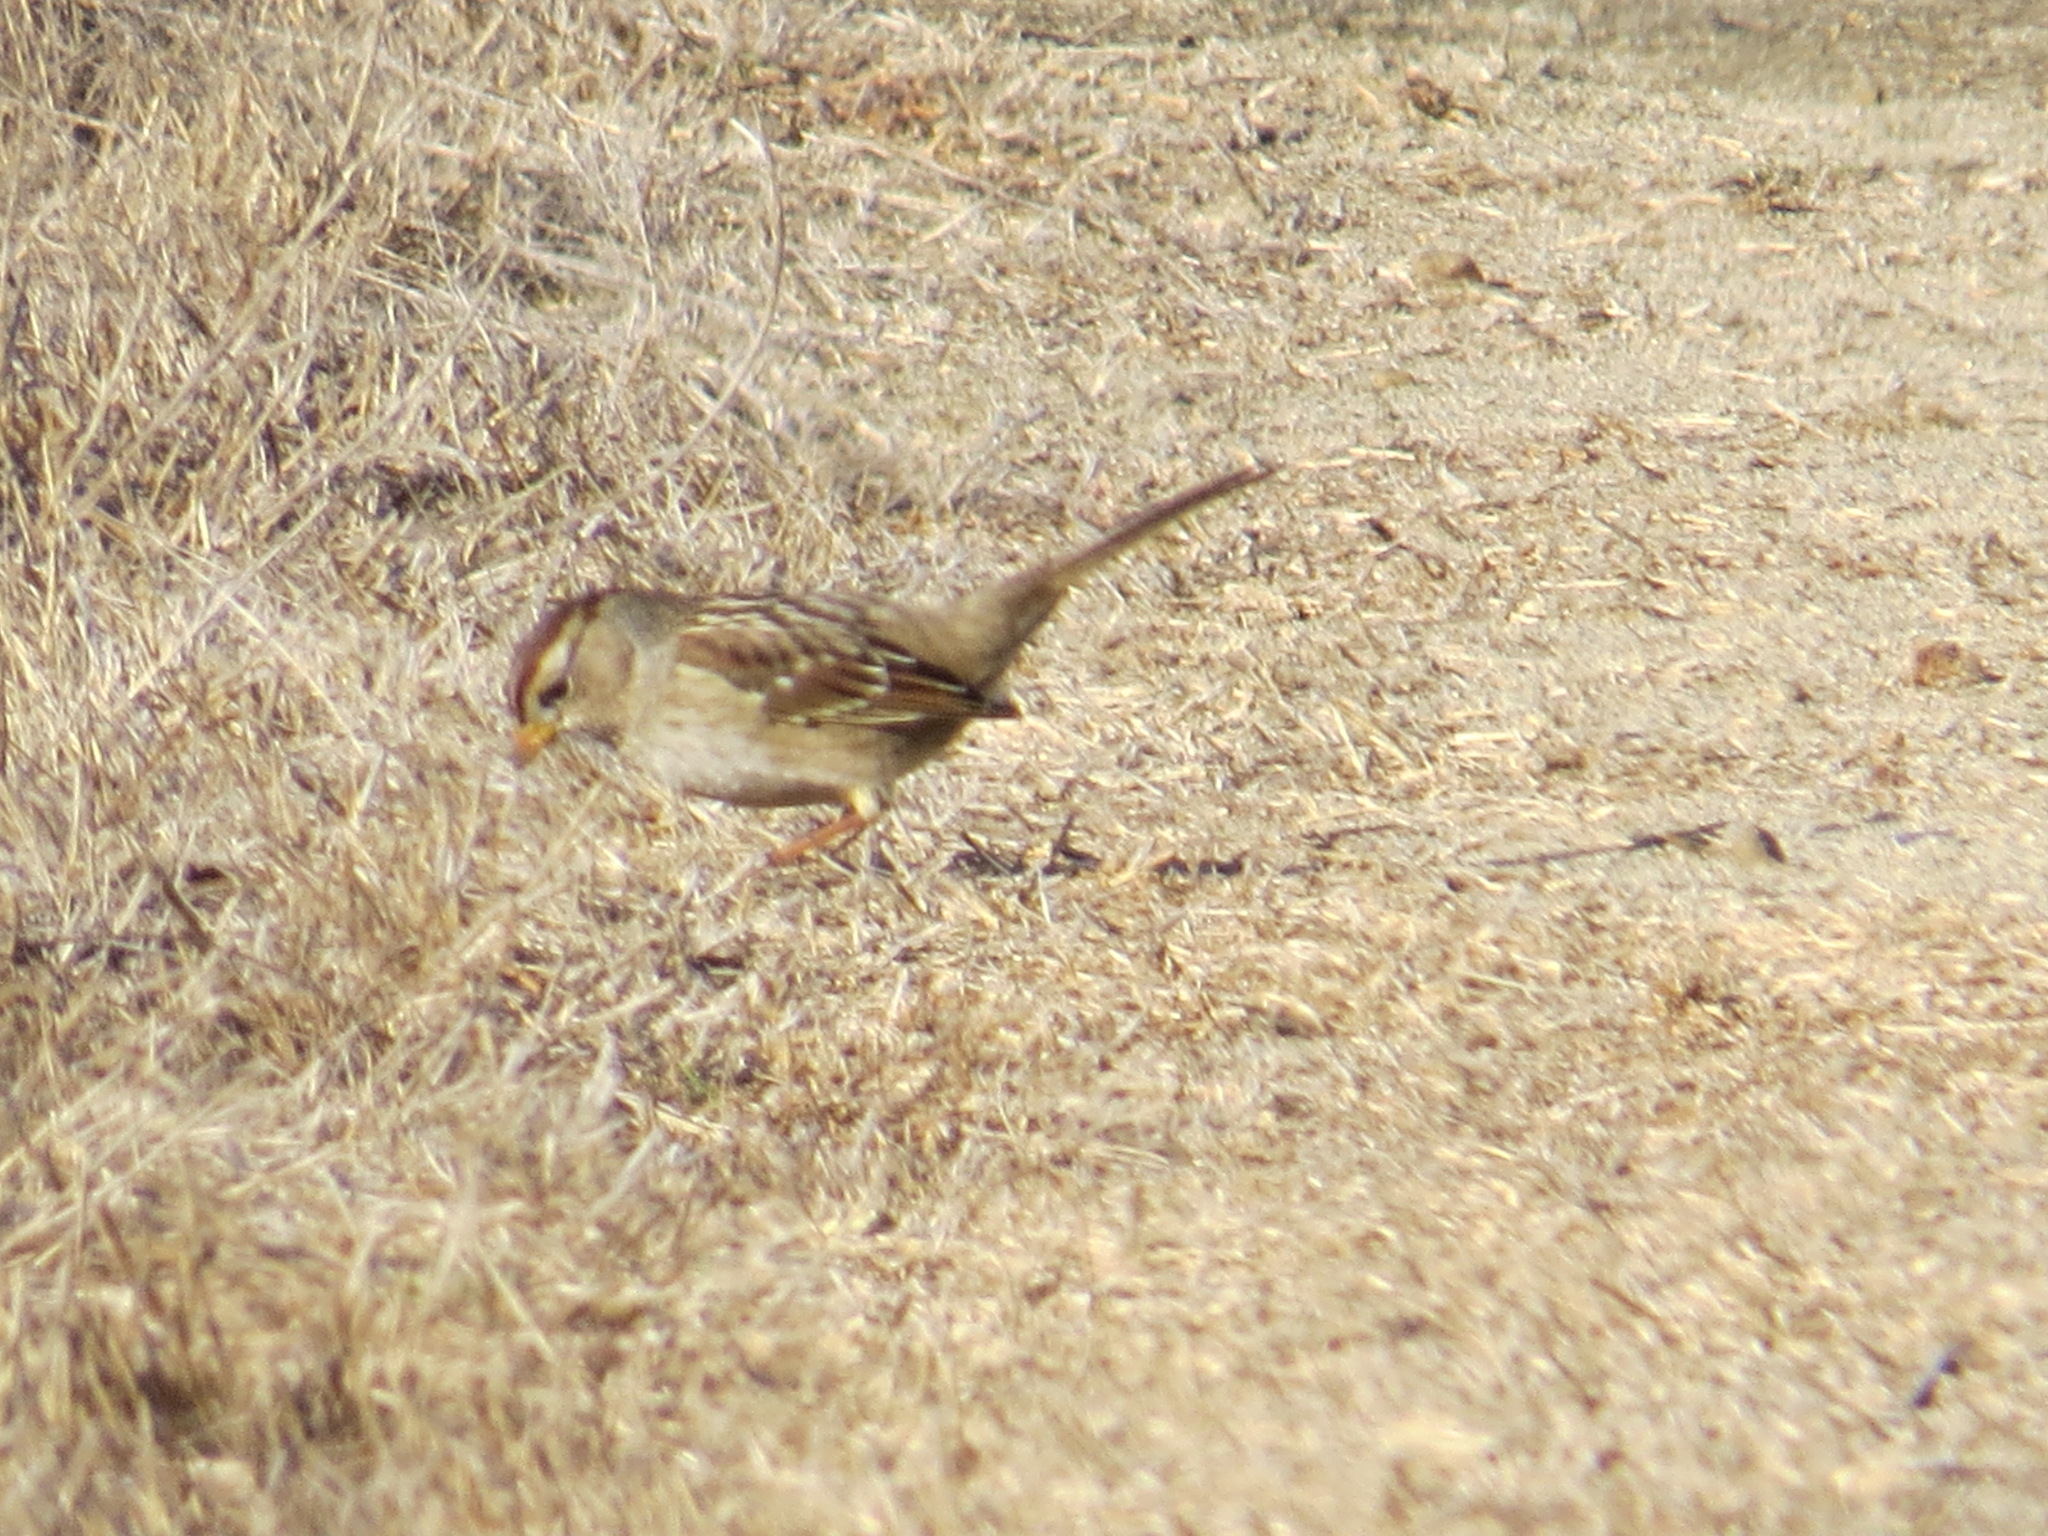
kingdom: Animalia
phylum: Chordata
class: Aves
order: Passeriformes
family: Passerellidae
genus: Zonotrichia
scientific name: Zonotrichia leucophrys
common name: White-crowned sparrow
